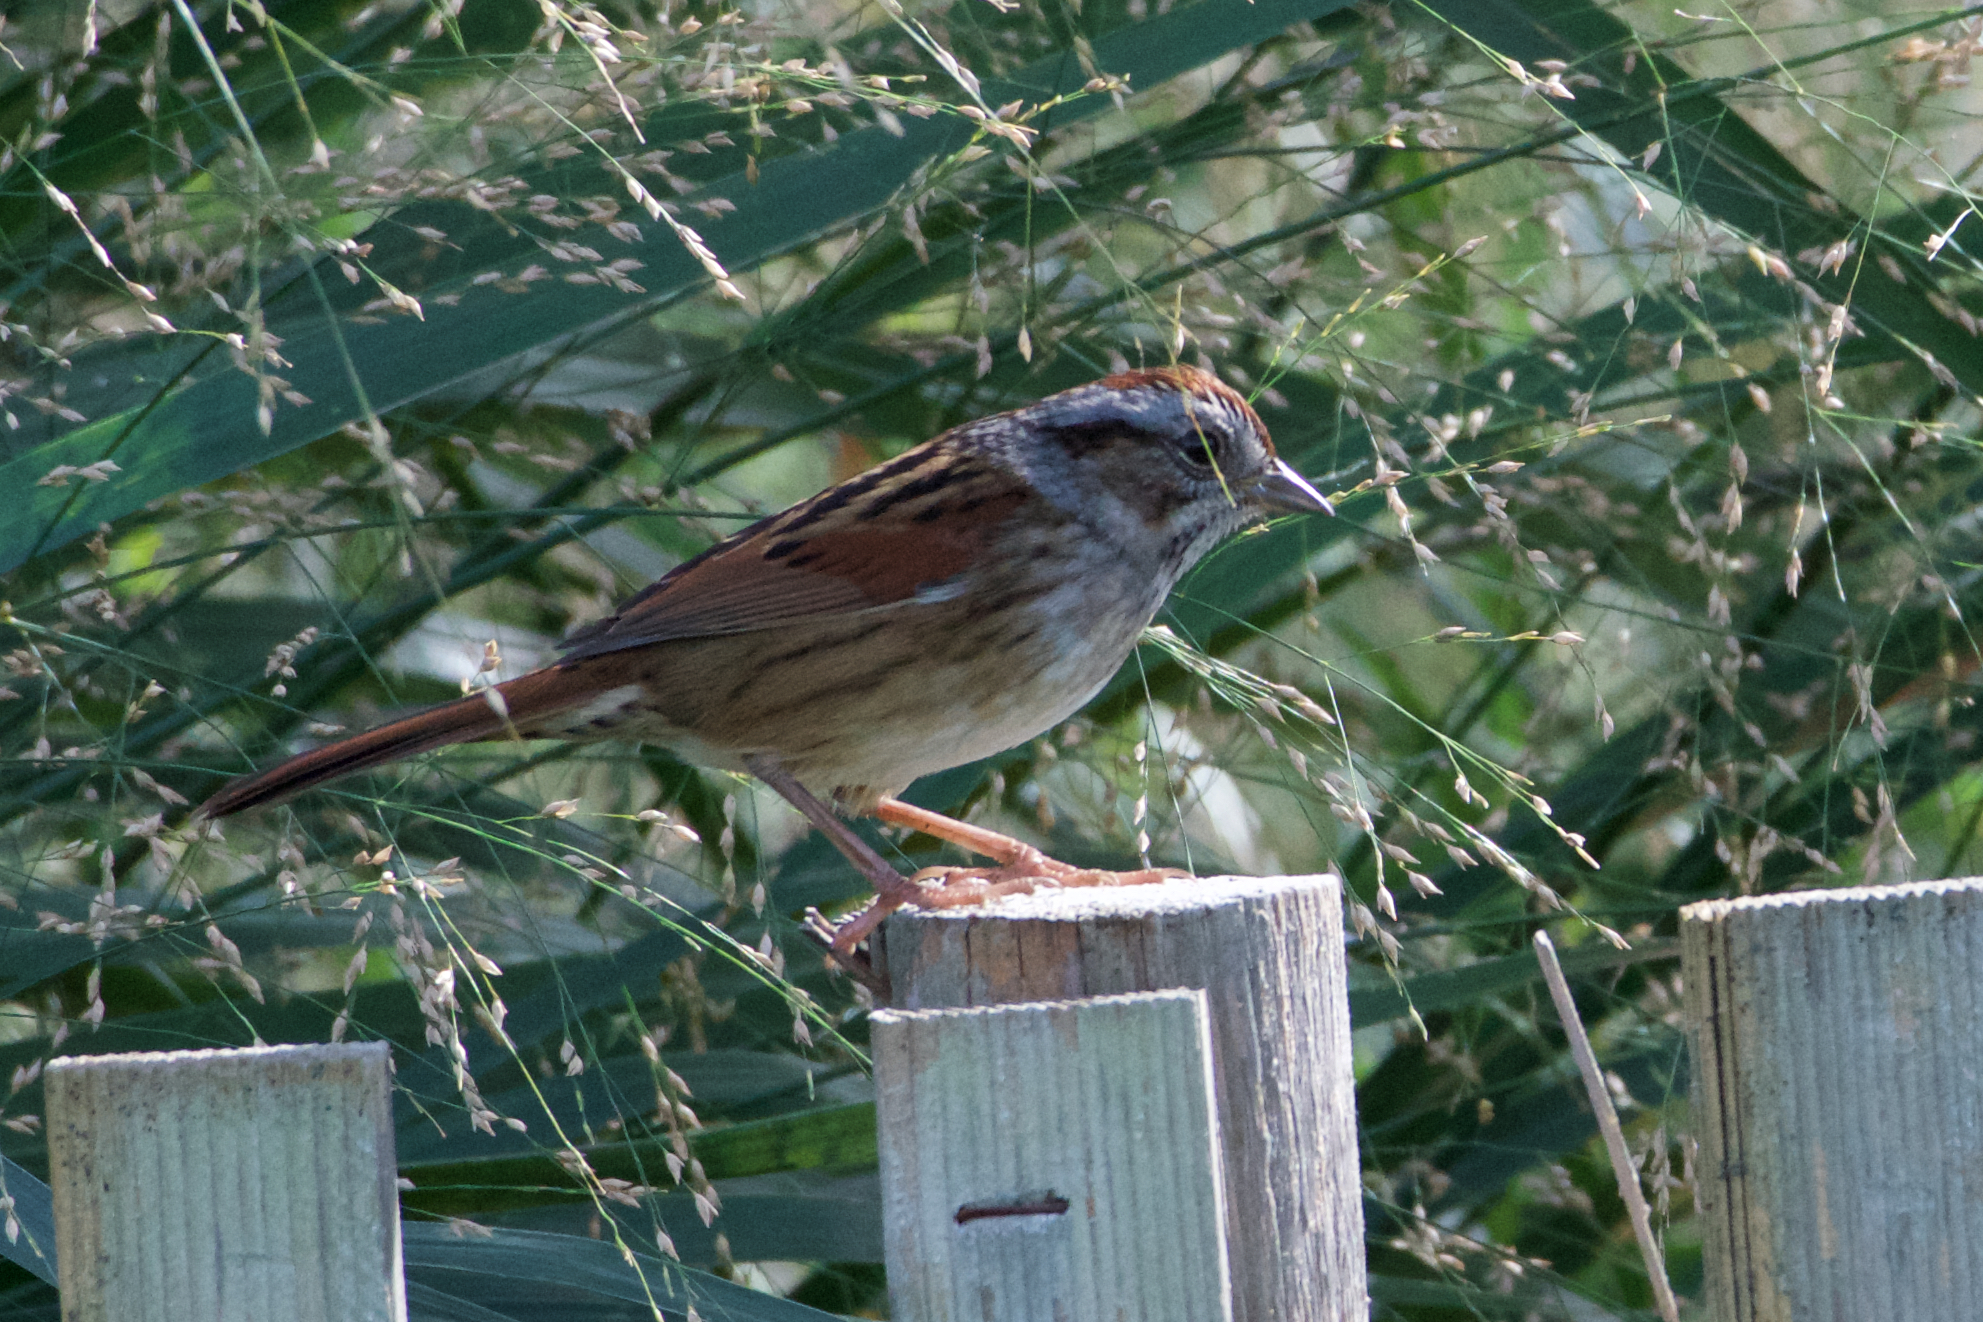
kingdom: Animalia
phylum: Chordata
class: Aves
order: Passeriformes
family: Passerellidae
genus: Melospiza
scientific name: Melospiza georgiana
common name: Swamp sparrow
